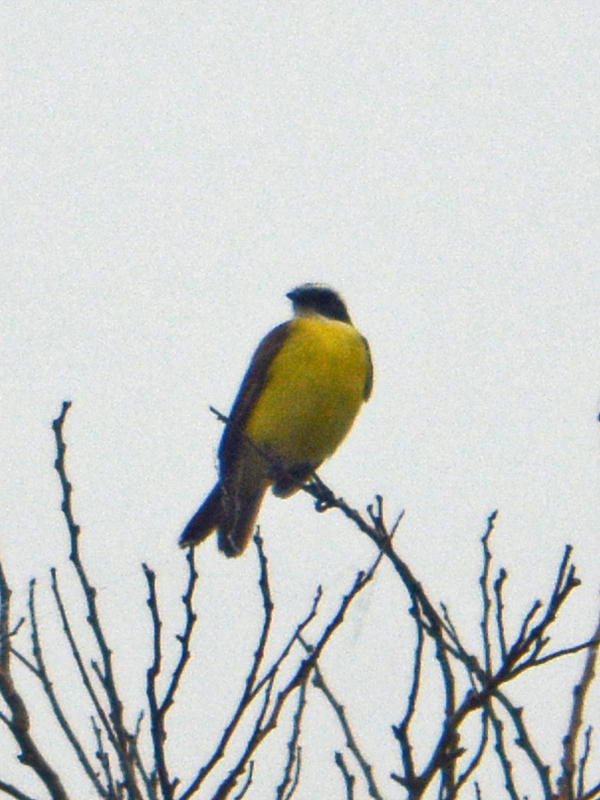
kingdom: Animalia
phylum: Chordata
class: Aves
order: Passeriformes
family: Tyrannidae
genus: Myiozetetes
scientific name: Myiozetetes similis
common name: Social flycatcher
